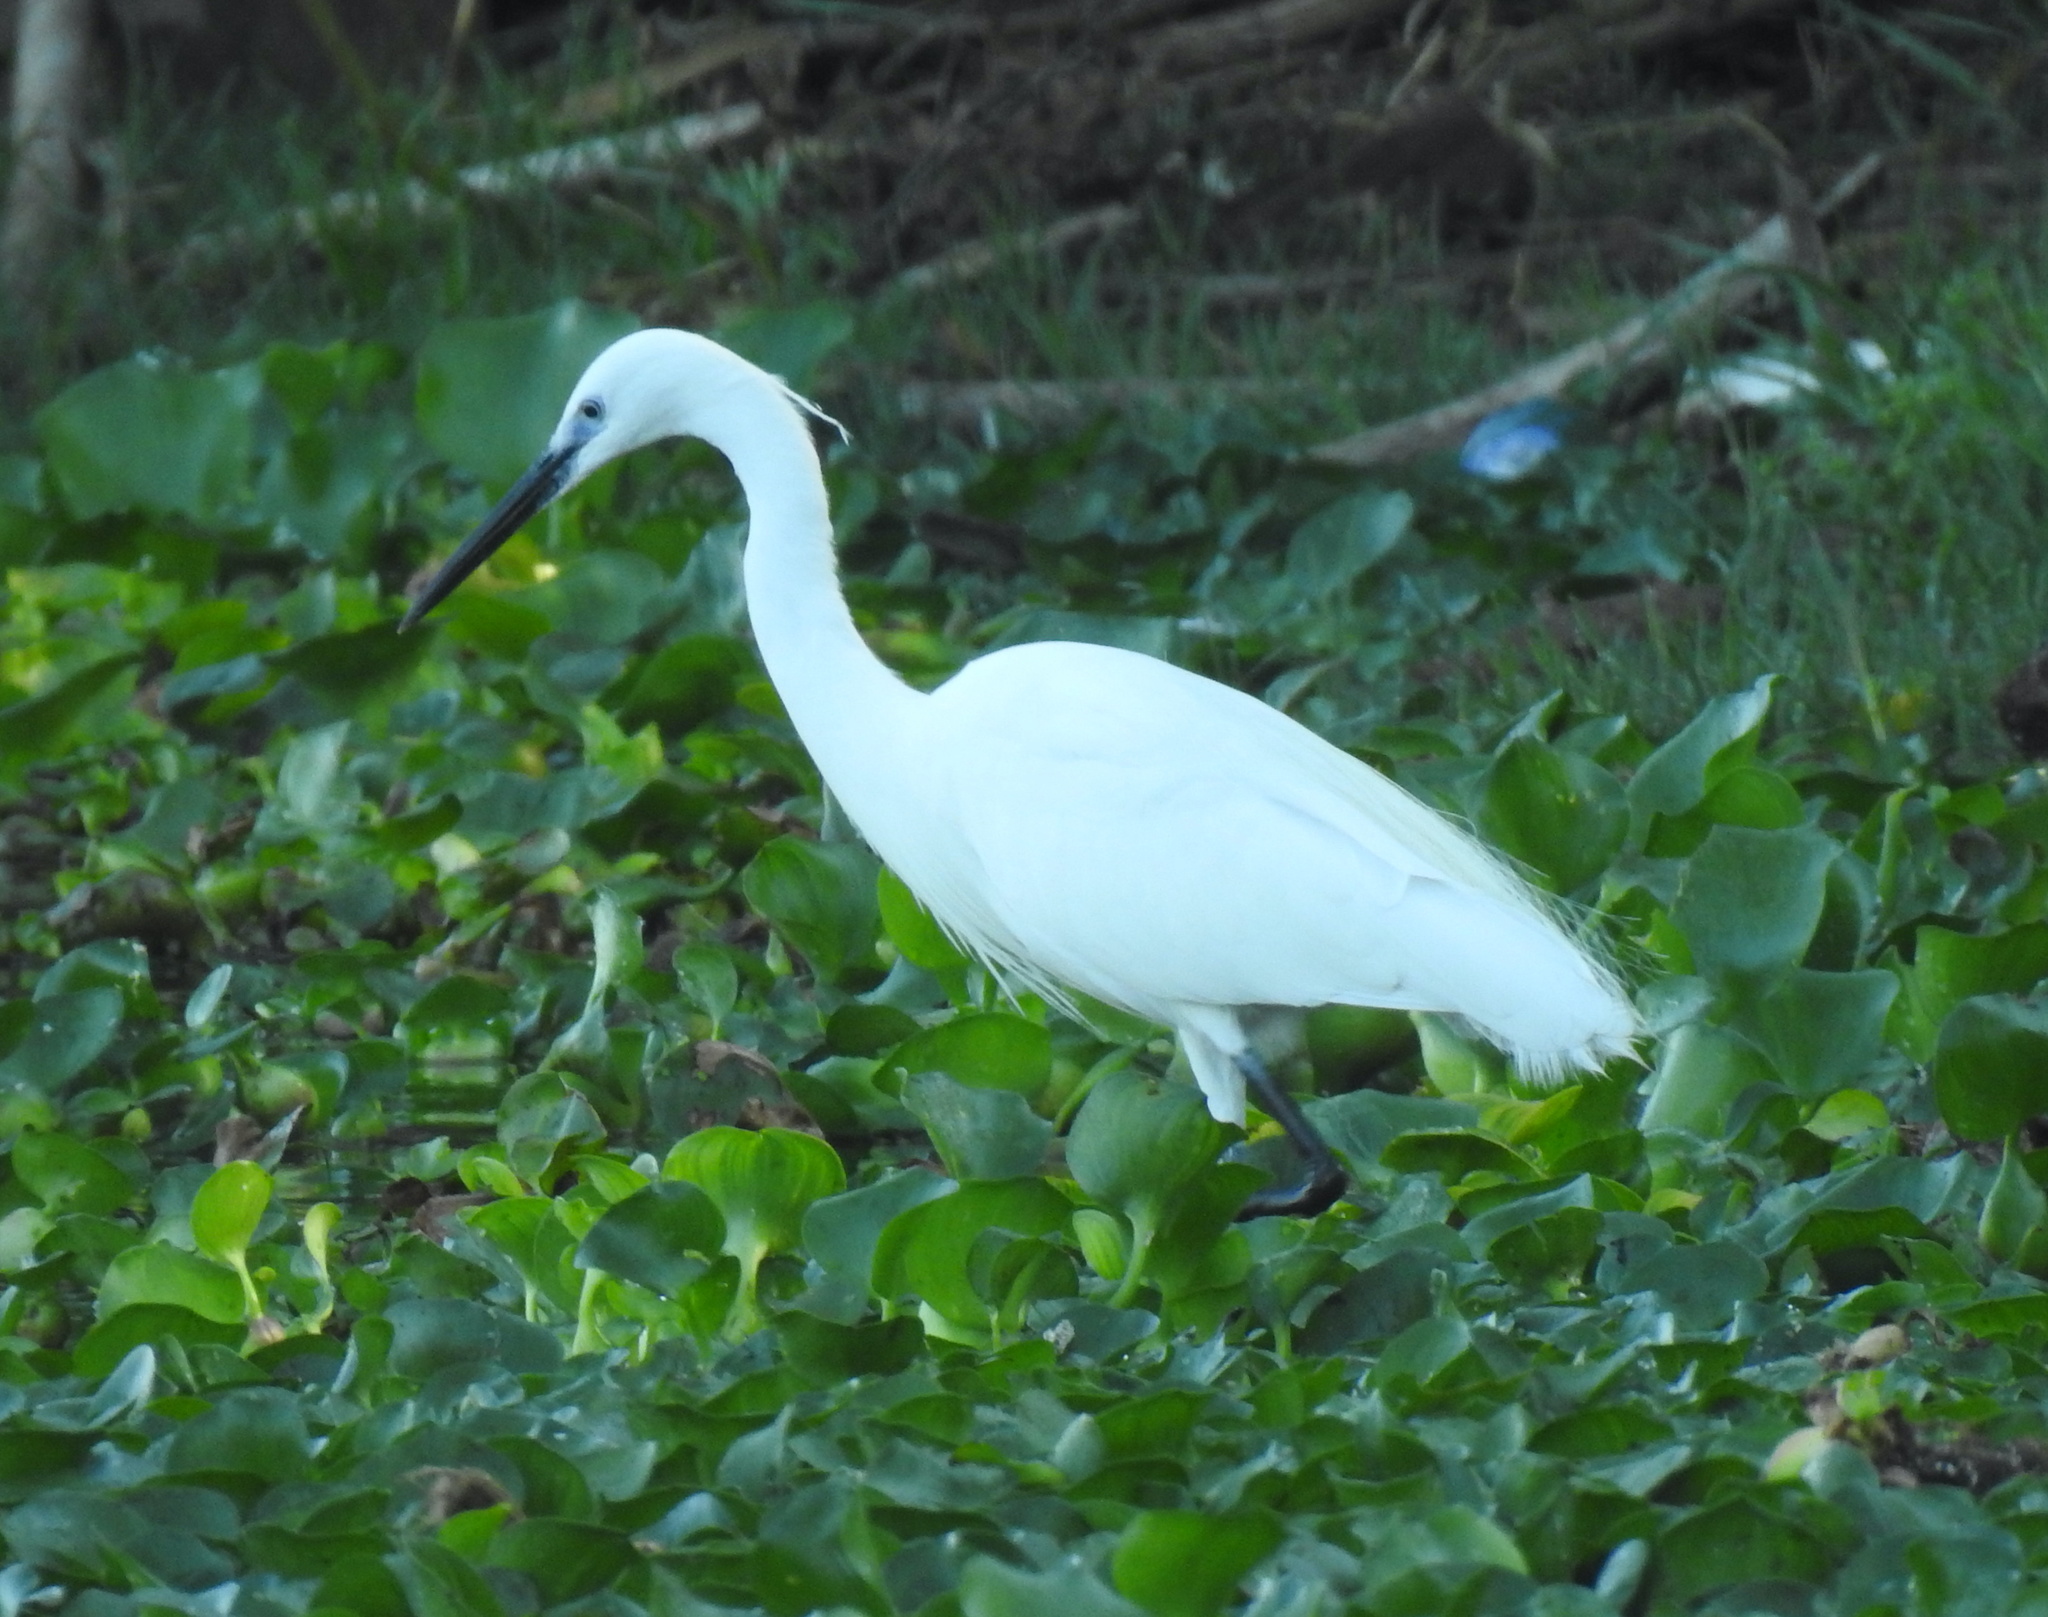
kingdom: Animalia
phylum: Chordata
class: Aves
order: Pelecaniformes
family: Ardeidae
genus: Egretta
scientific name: Egretta garzetta
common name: Little egret
